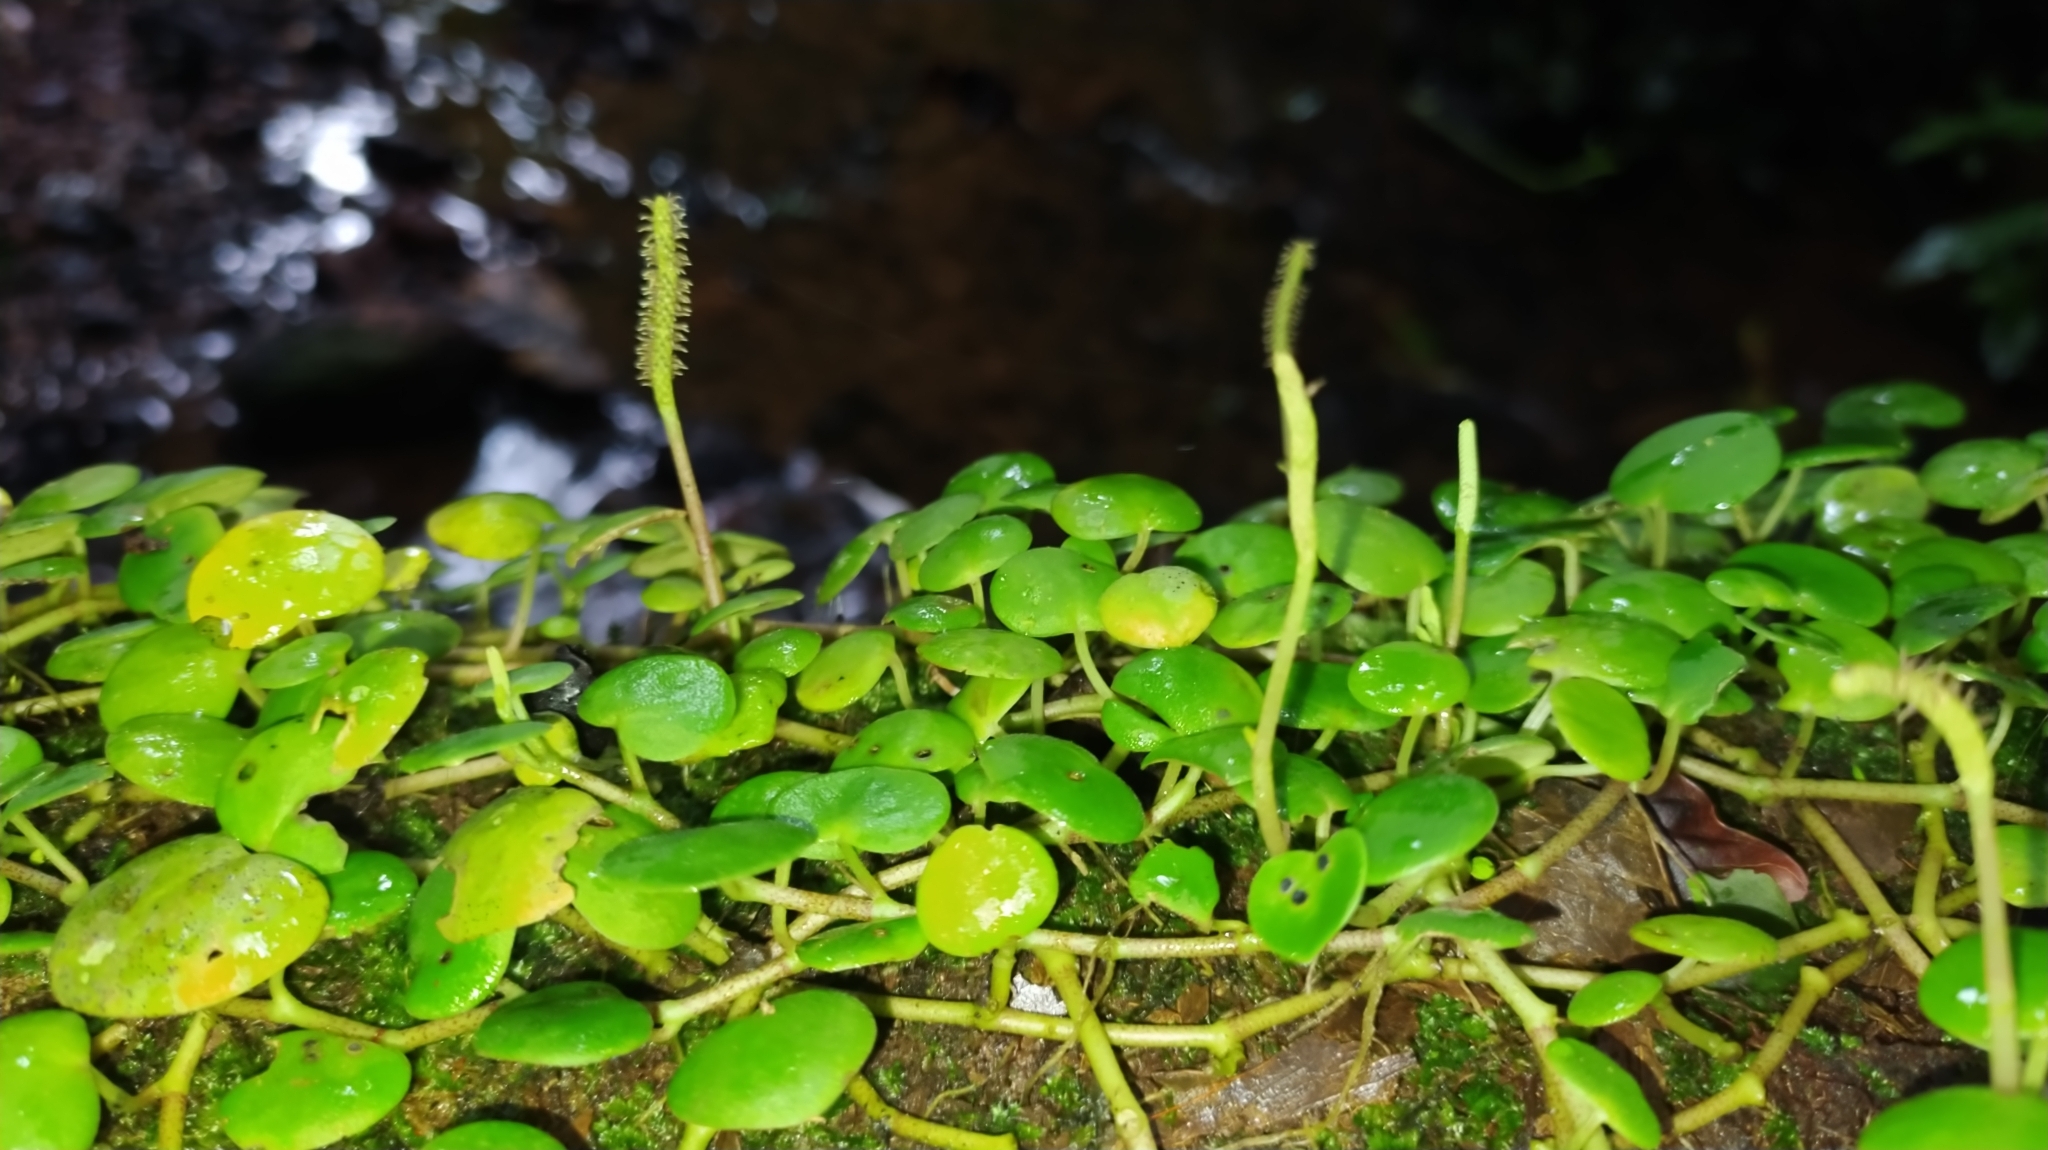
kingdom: Plantae
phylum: Tracheophyta
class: Magnoliopsida
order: Piperales
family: Piperaceae
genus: Peperomia
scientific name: Peperomia serpens
